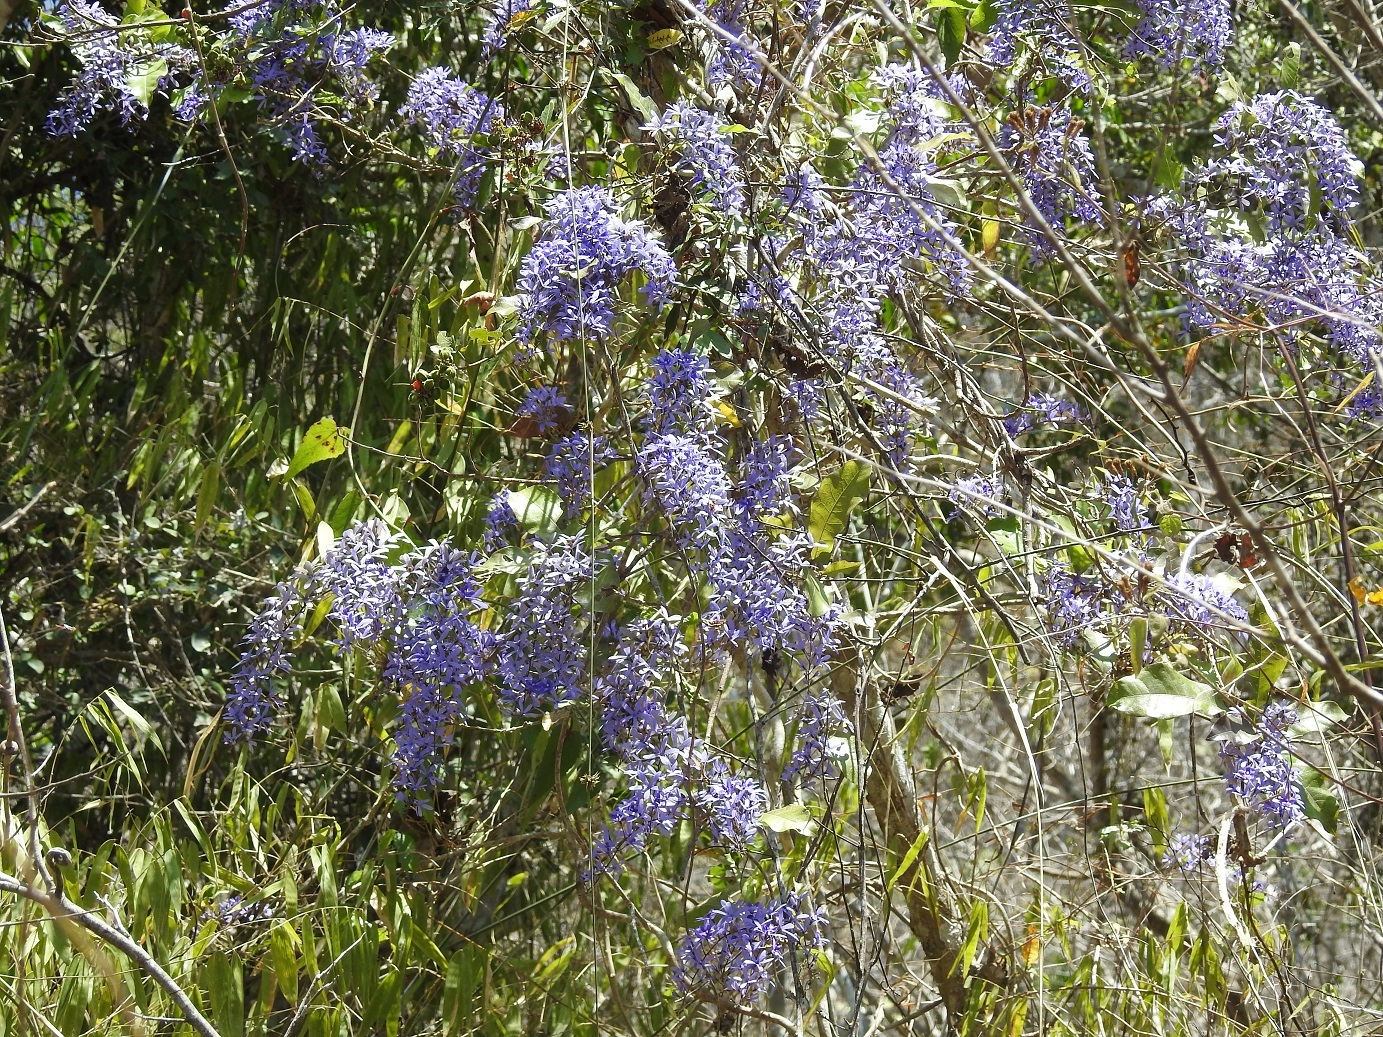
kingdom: Plantae
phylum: Tracheophyta
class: Magnoliopsida
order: Lamiales
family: Verbenaceae
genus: Petrea
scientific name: Petrea volubilis
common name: Queen's-wreath
